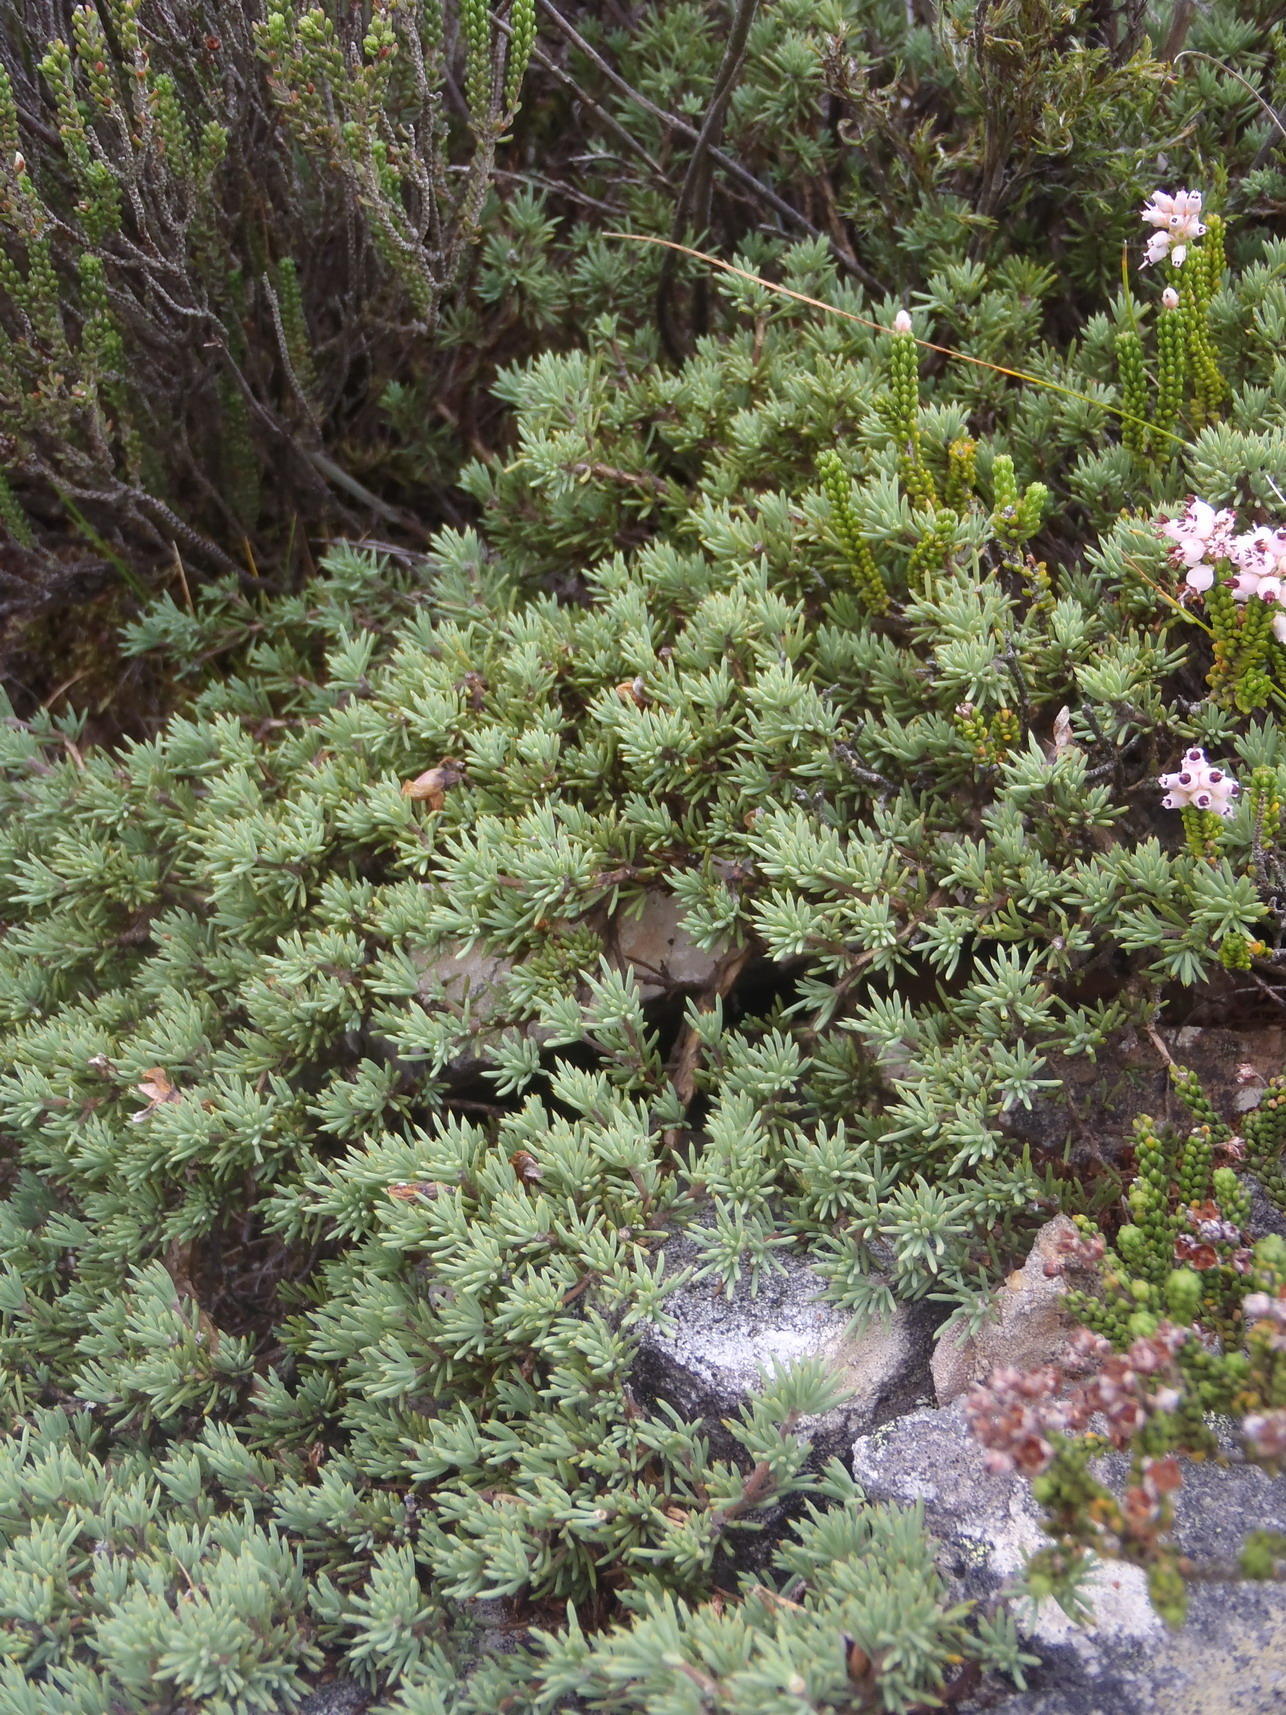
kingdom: Plantae
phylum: Tracheophyta
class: Magnoliopsida
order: Fabales
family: Fabaceae
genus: Aspalathus
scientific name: Aspalathus rigidifolia
